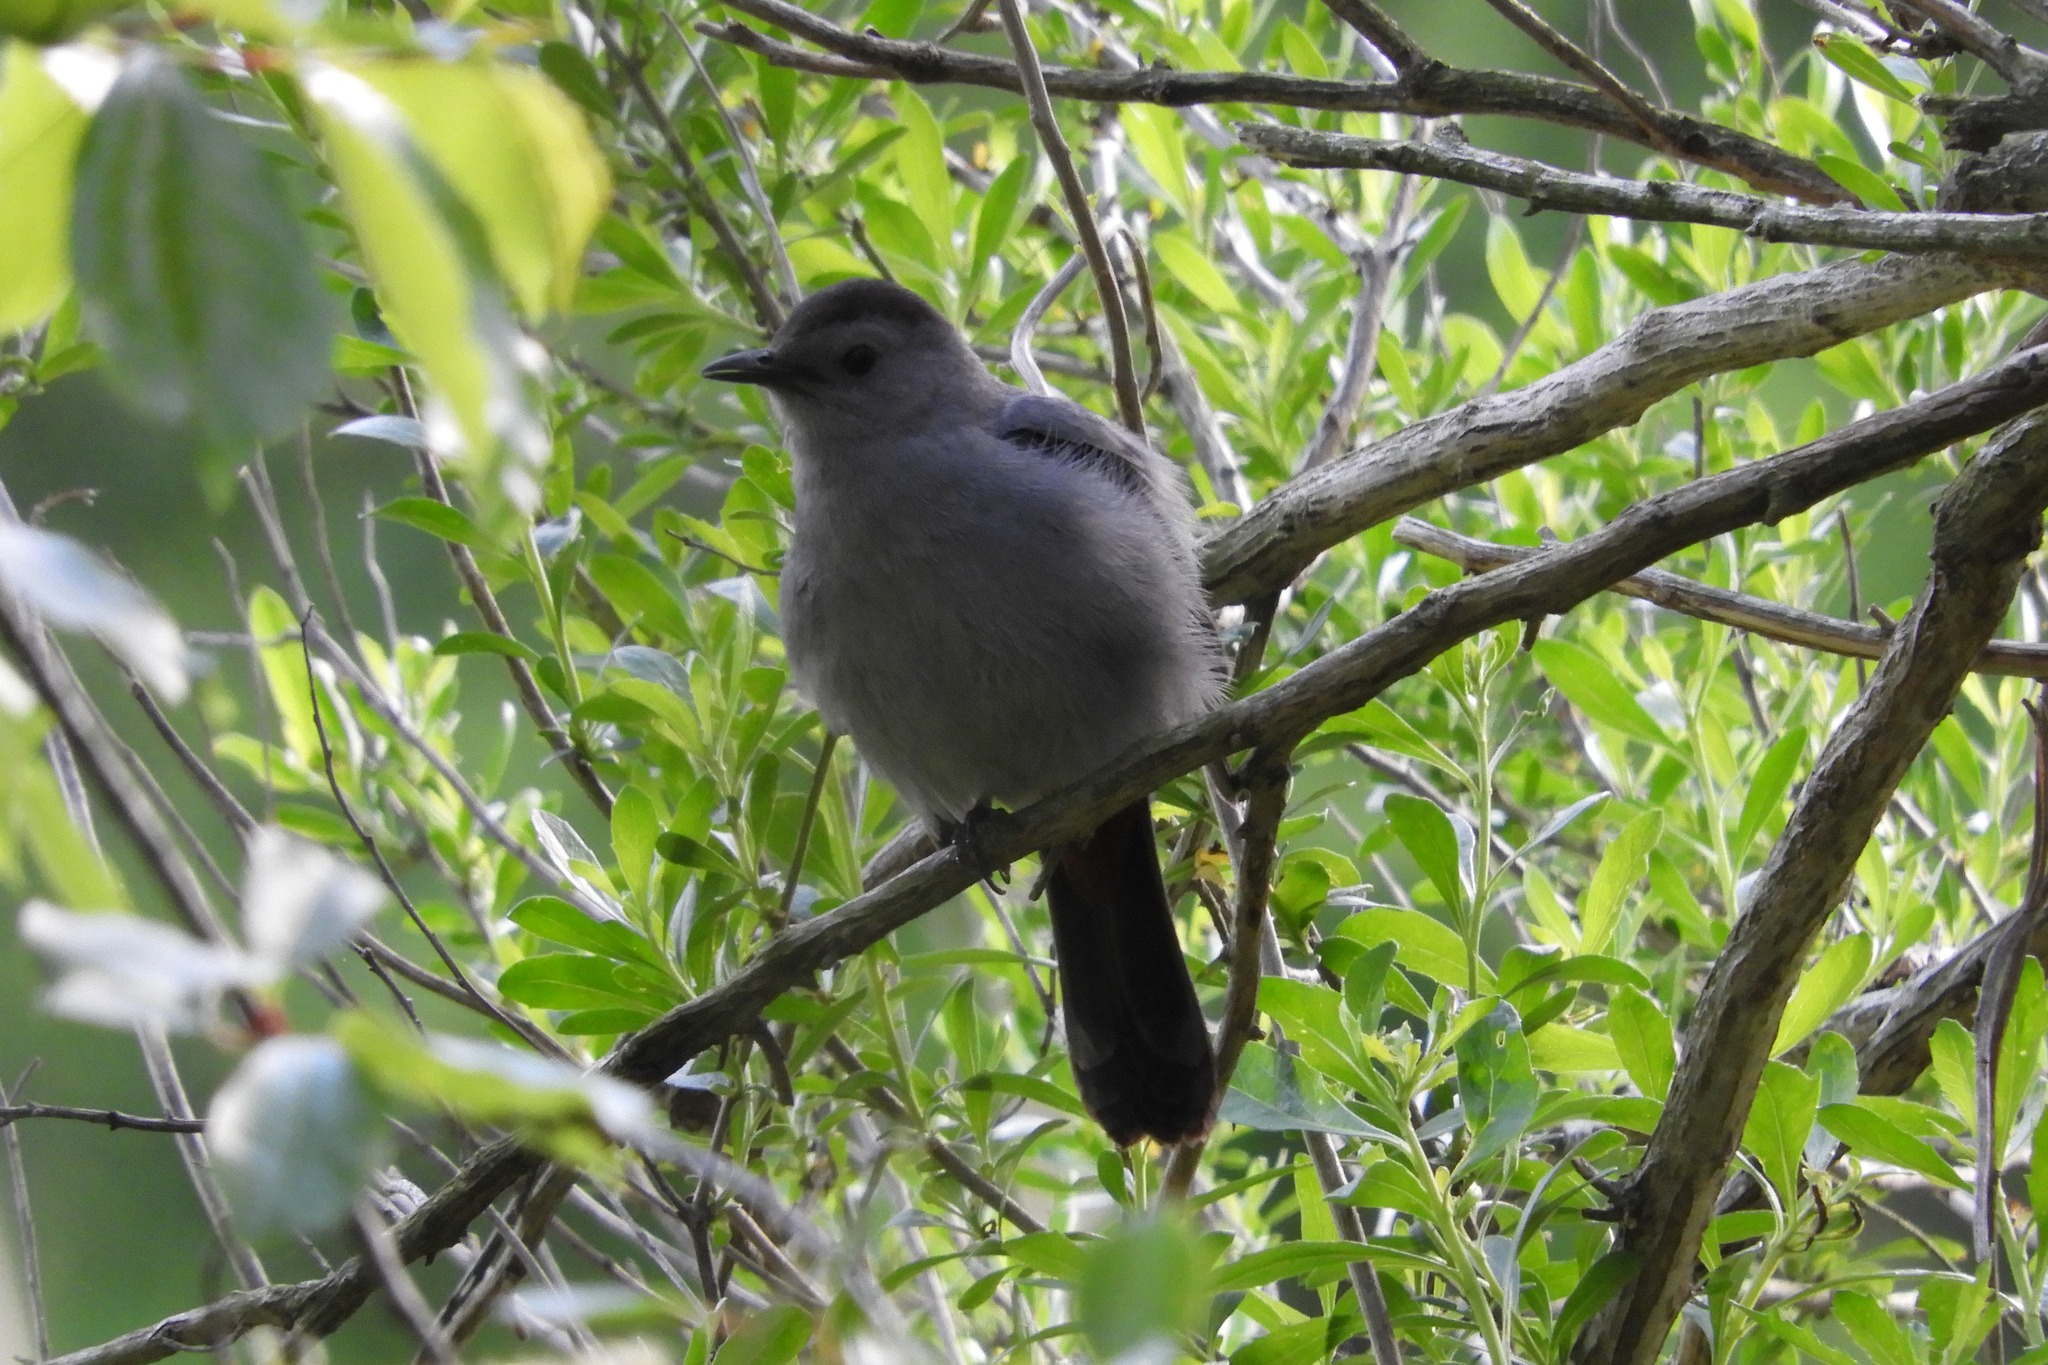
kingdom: Animalia
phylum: Chordata
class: Aves
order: Passeriformes
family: Mimidae
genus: Dumetella
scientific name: Dumetella carolinensis
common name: Gray catbird
